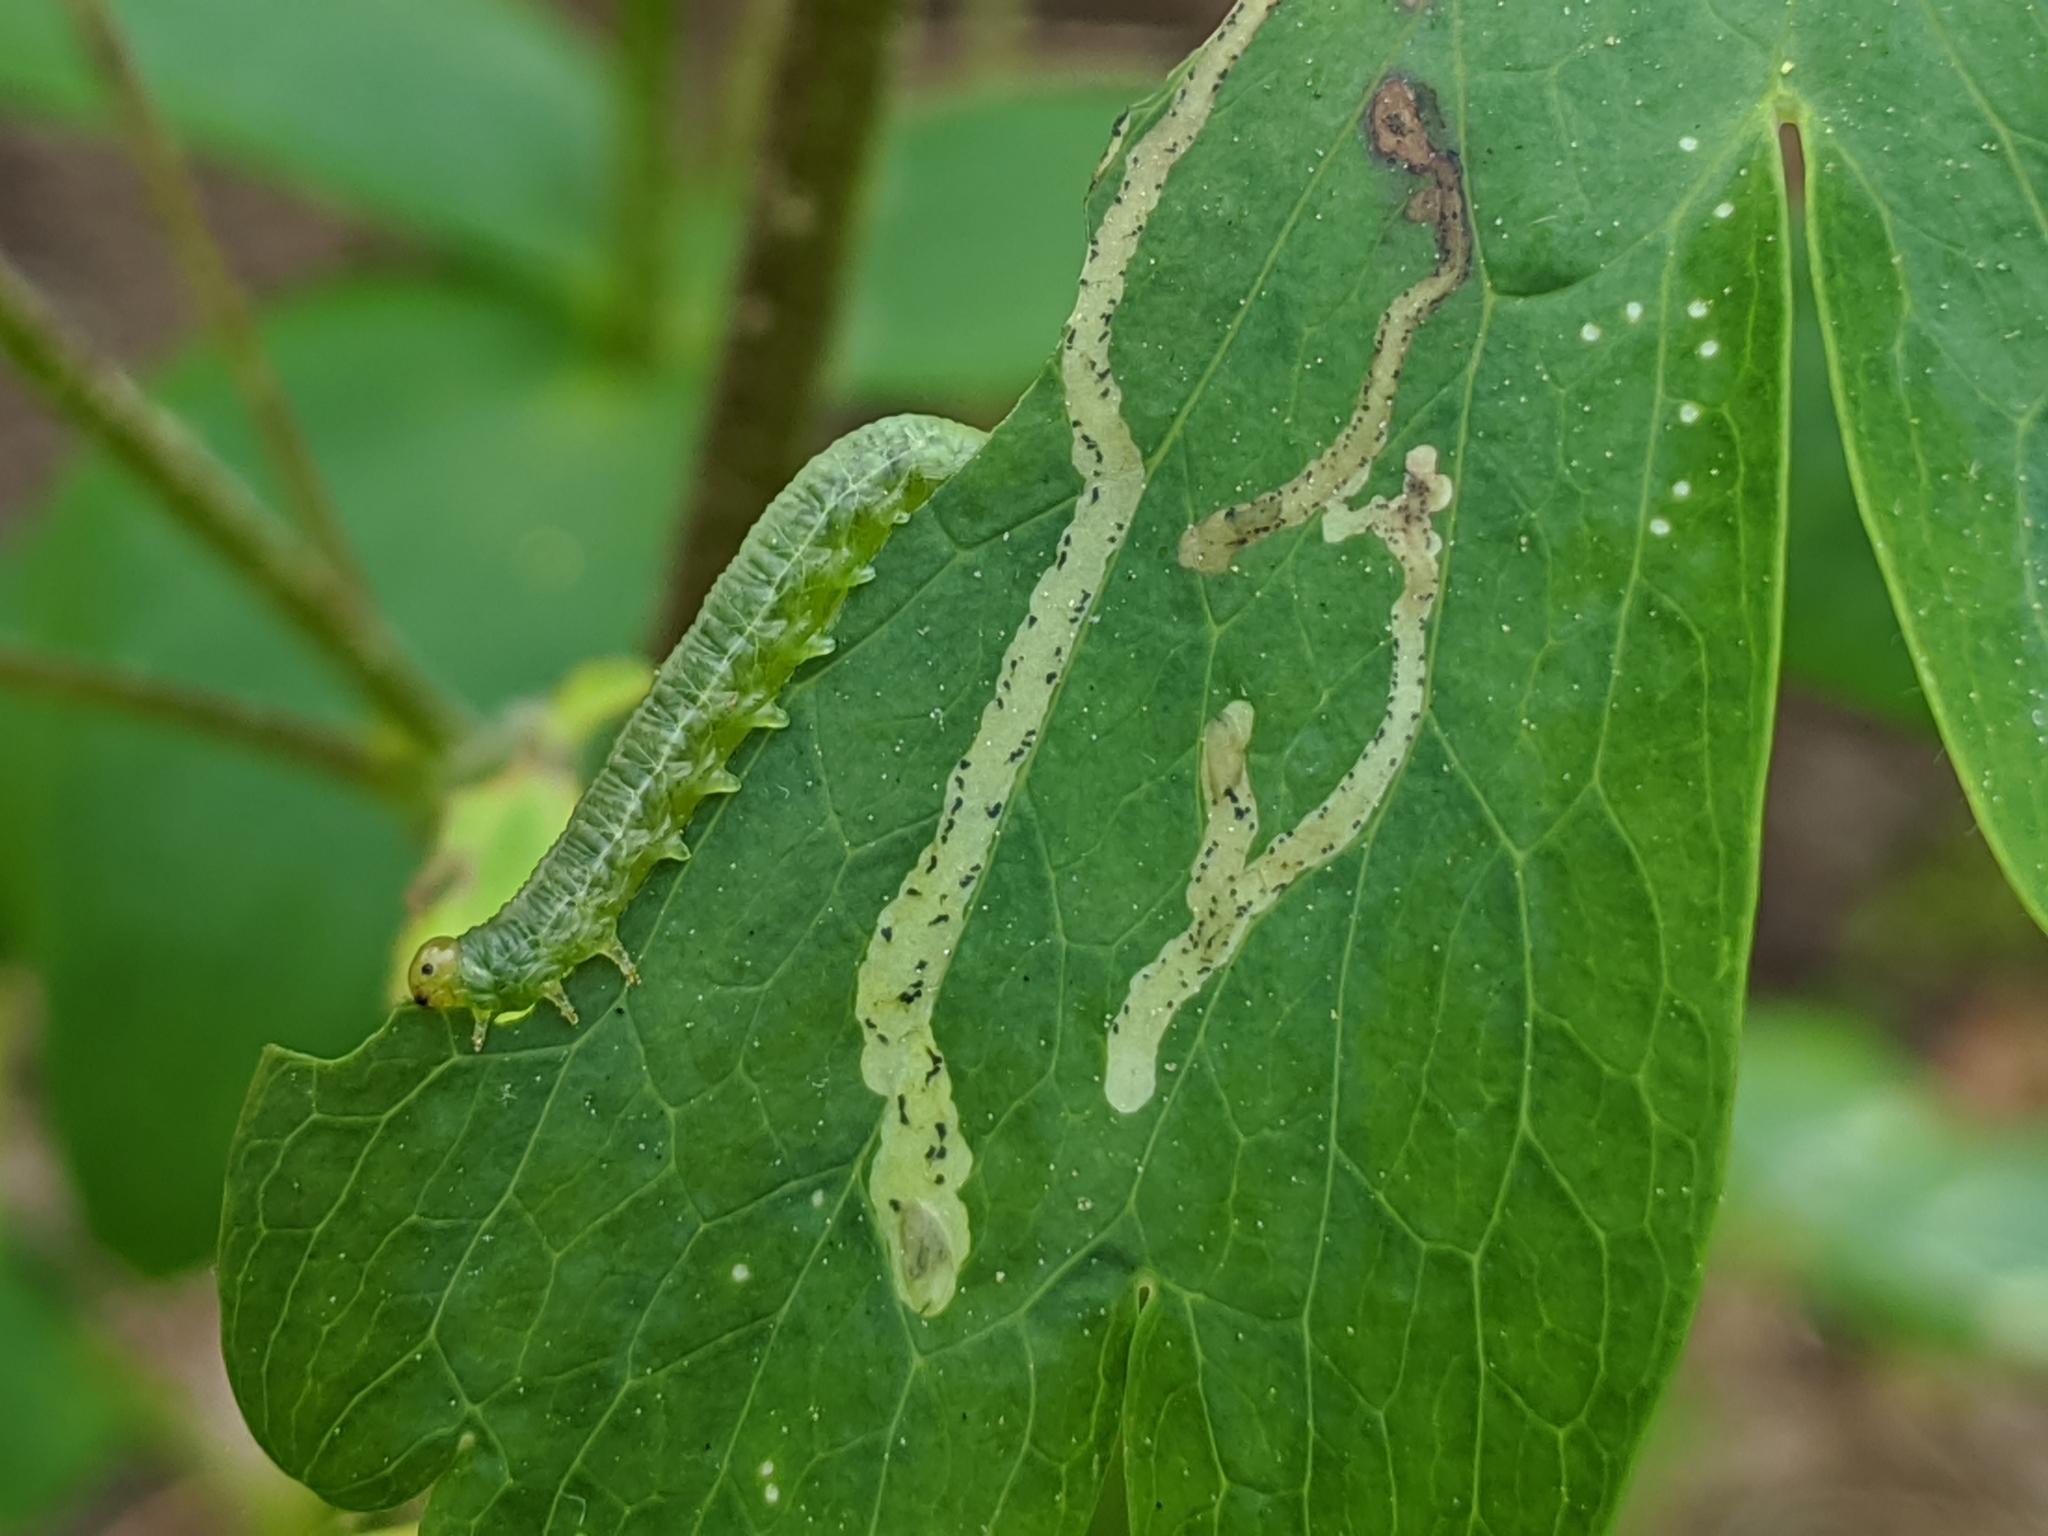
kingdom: Animalia
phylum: Arthropoda
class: Insecta
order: Hymenoptera
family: Tenthredinidae
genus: Pristiphora
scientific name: Pristiphora rufipes
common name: Sawfly
